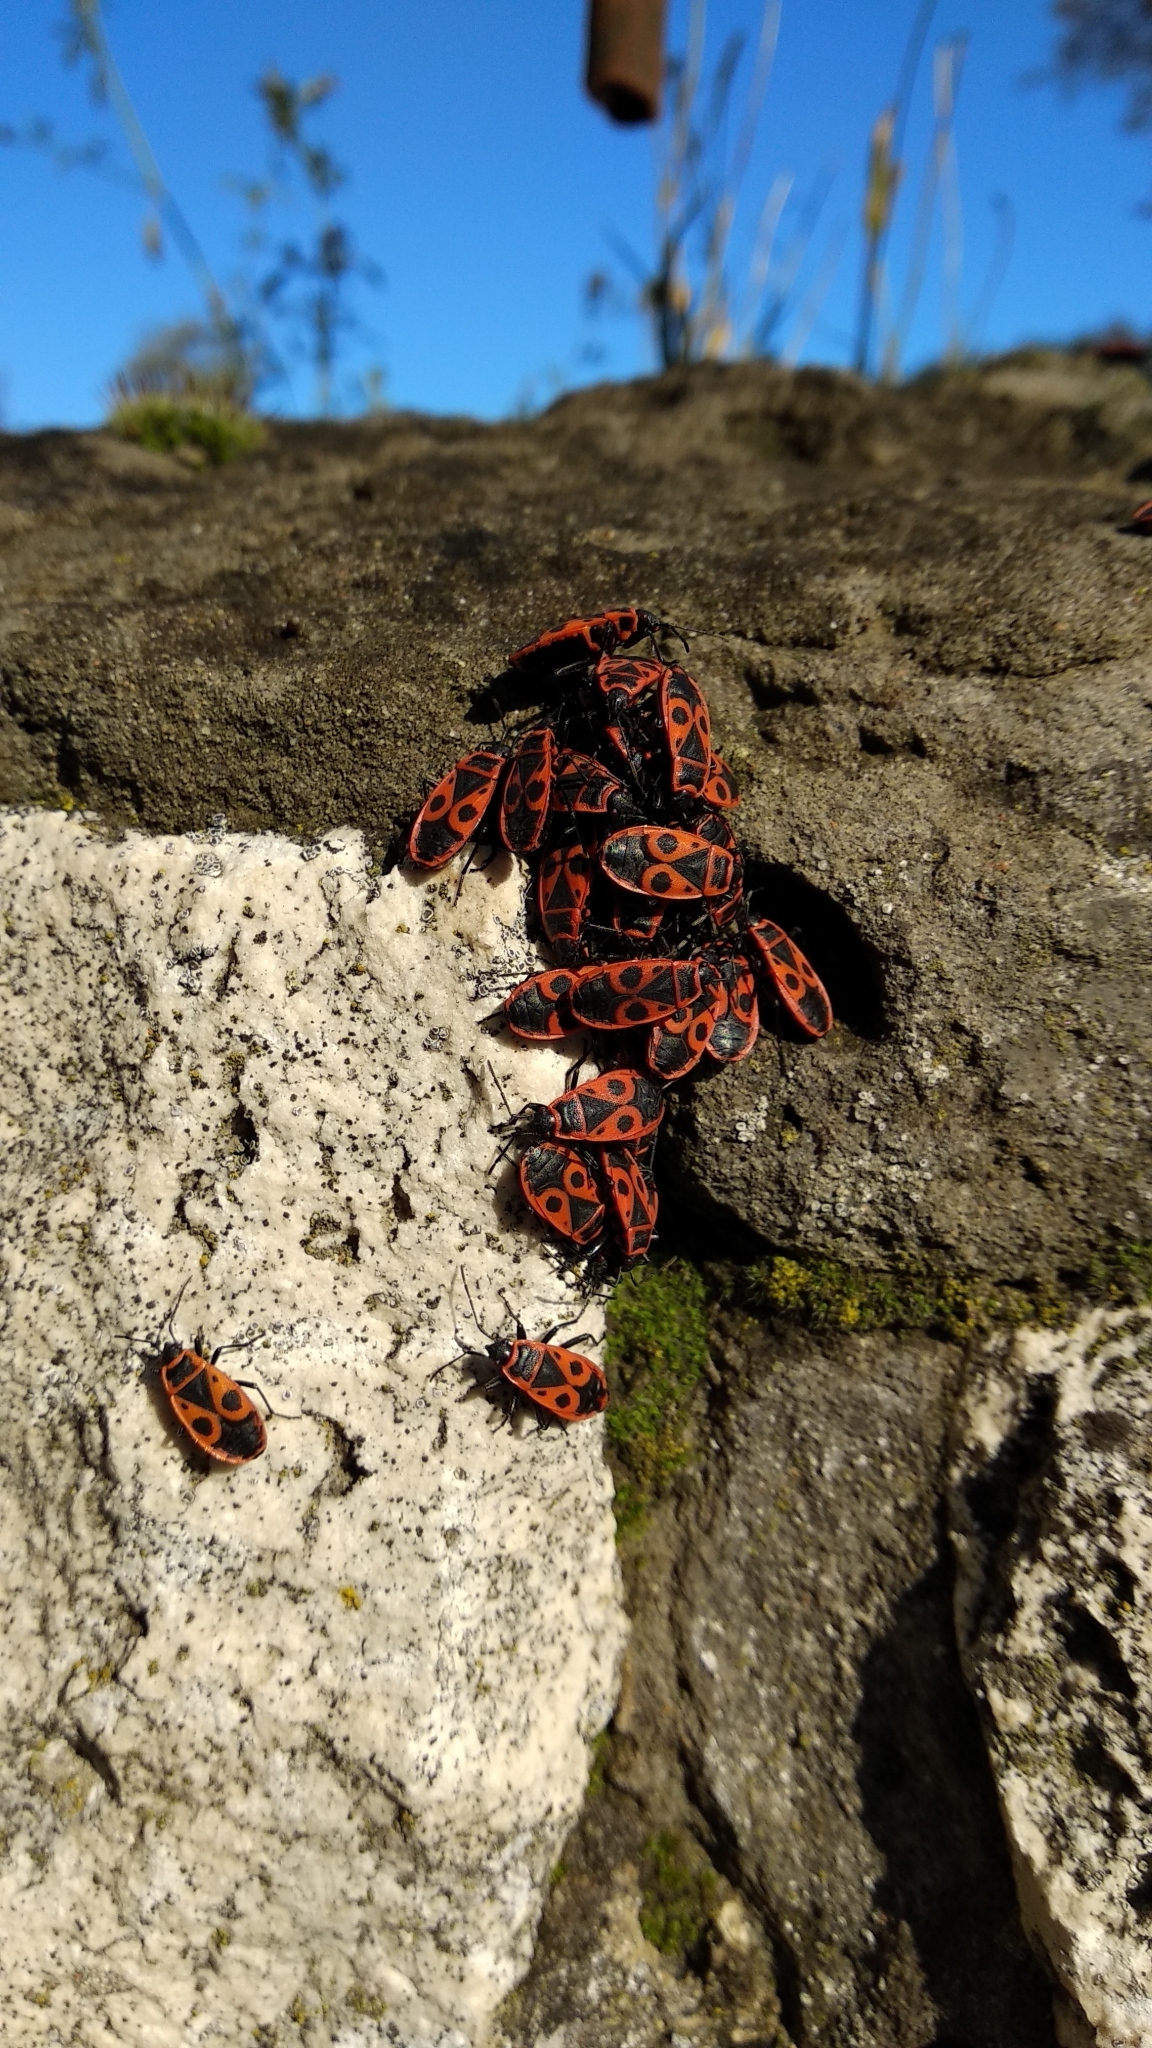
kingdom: Animalia
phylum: Arthropoda
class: Insecta
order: Hemiptera
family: Pyrrhocoridae
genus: Pyrrhocoris
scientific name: Pyrrhocoris apterus
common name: Firebug
